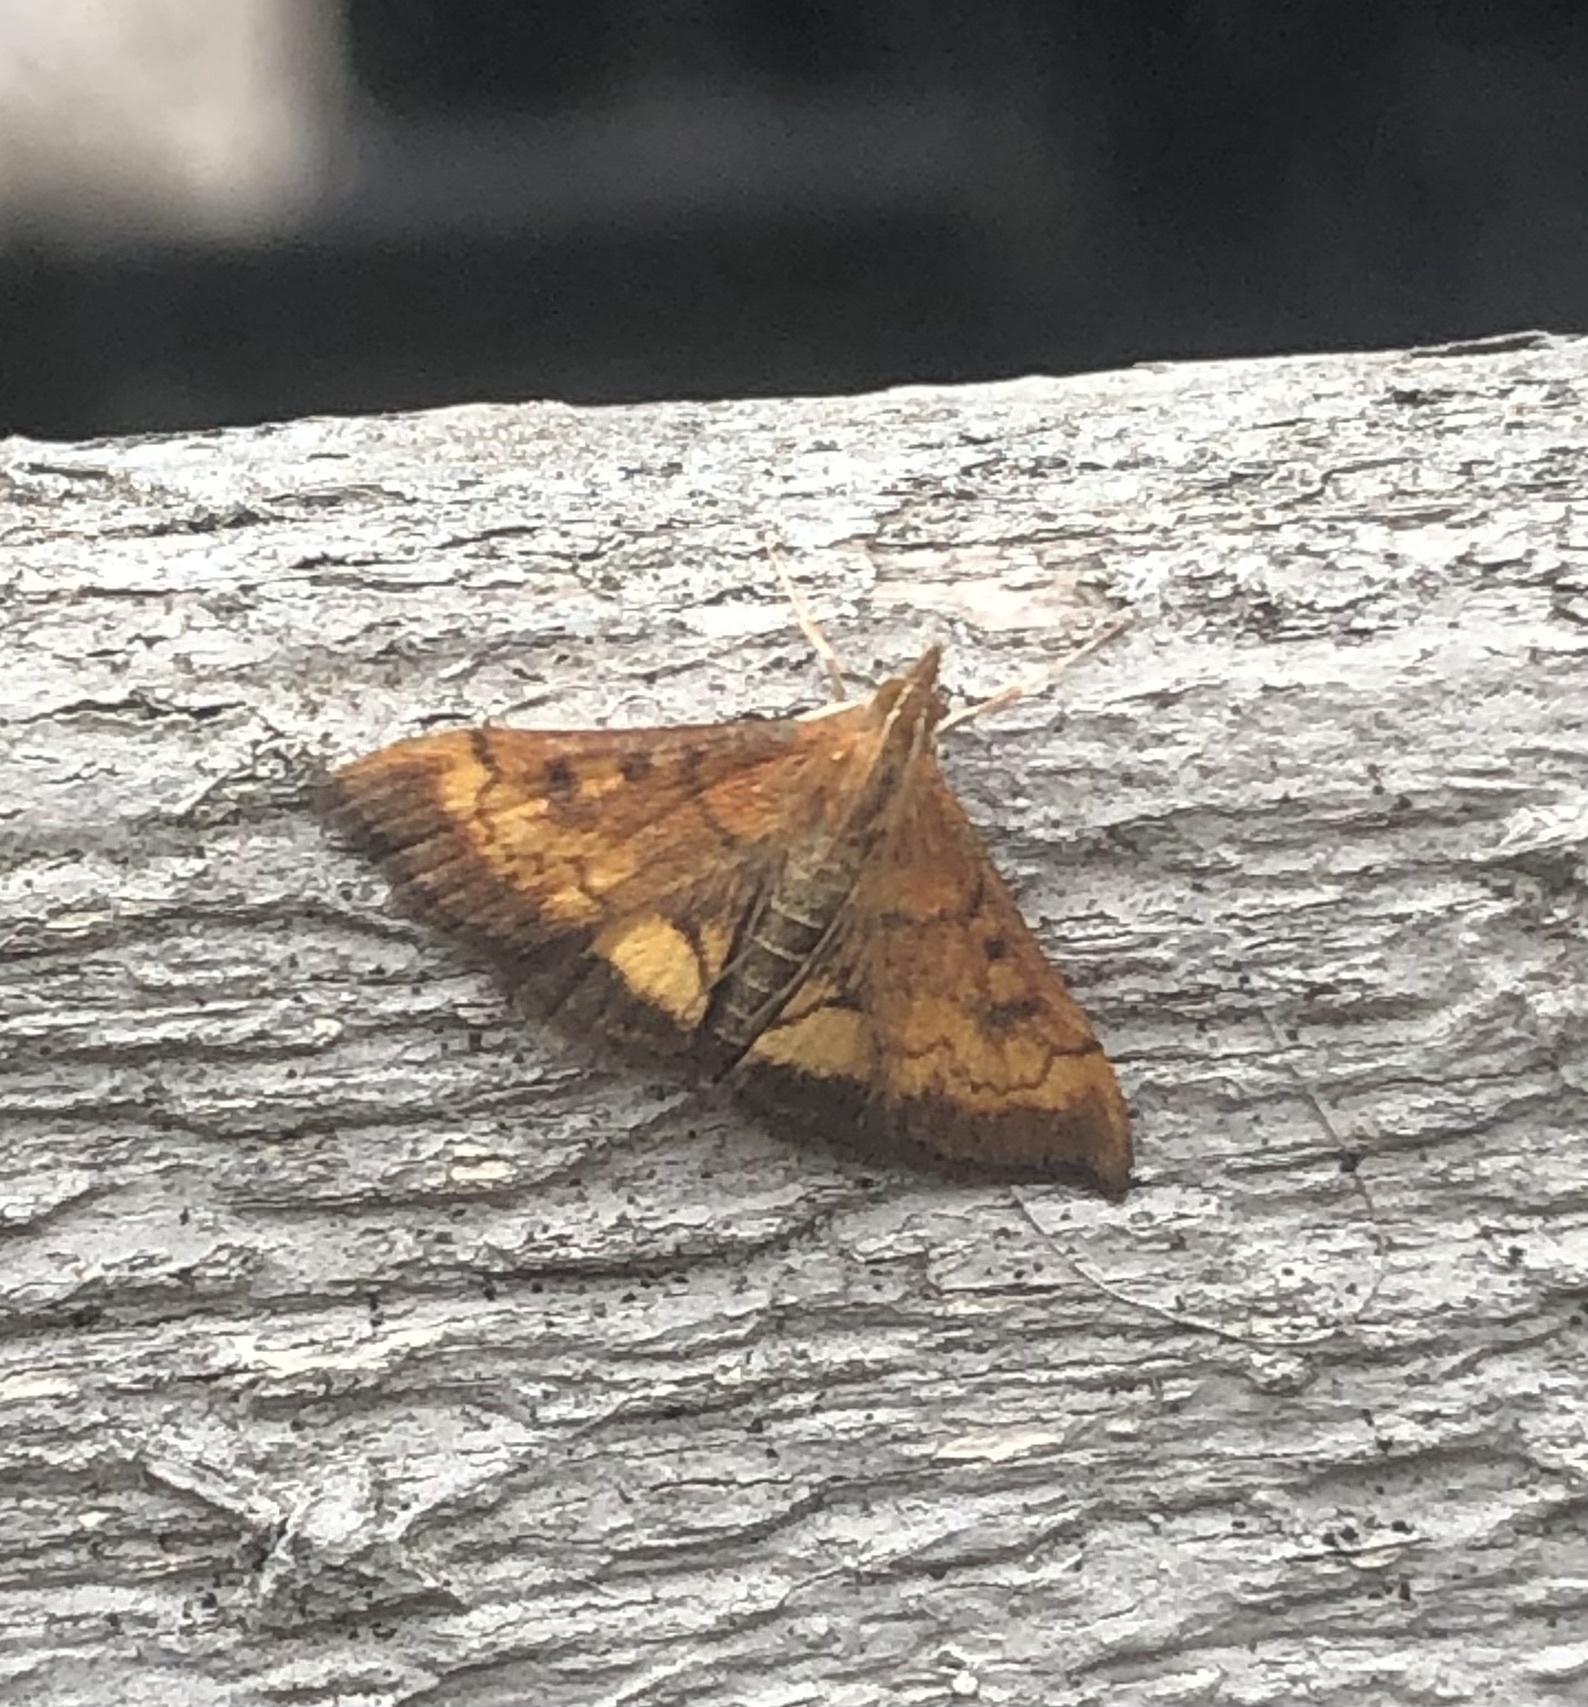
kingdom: Animalia
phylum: Arthropoda
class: Insecta
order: Lepidoptera
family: Crambidae
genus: Pyrausta
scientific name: Pyrausta californicalis
